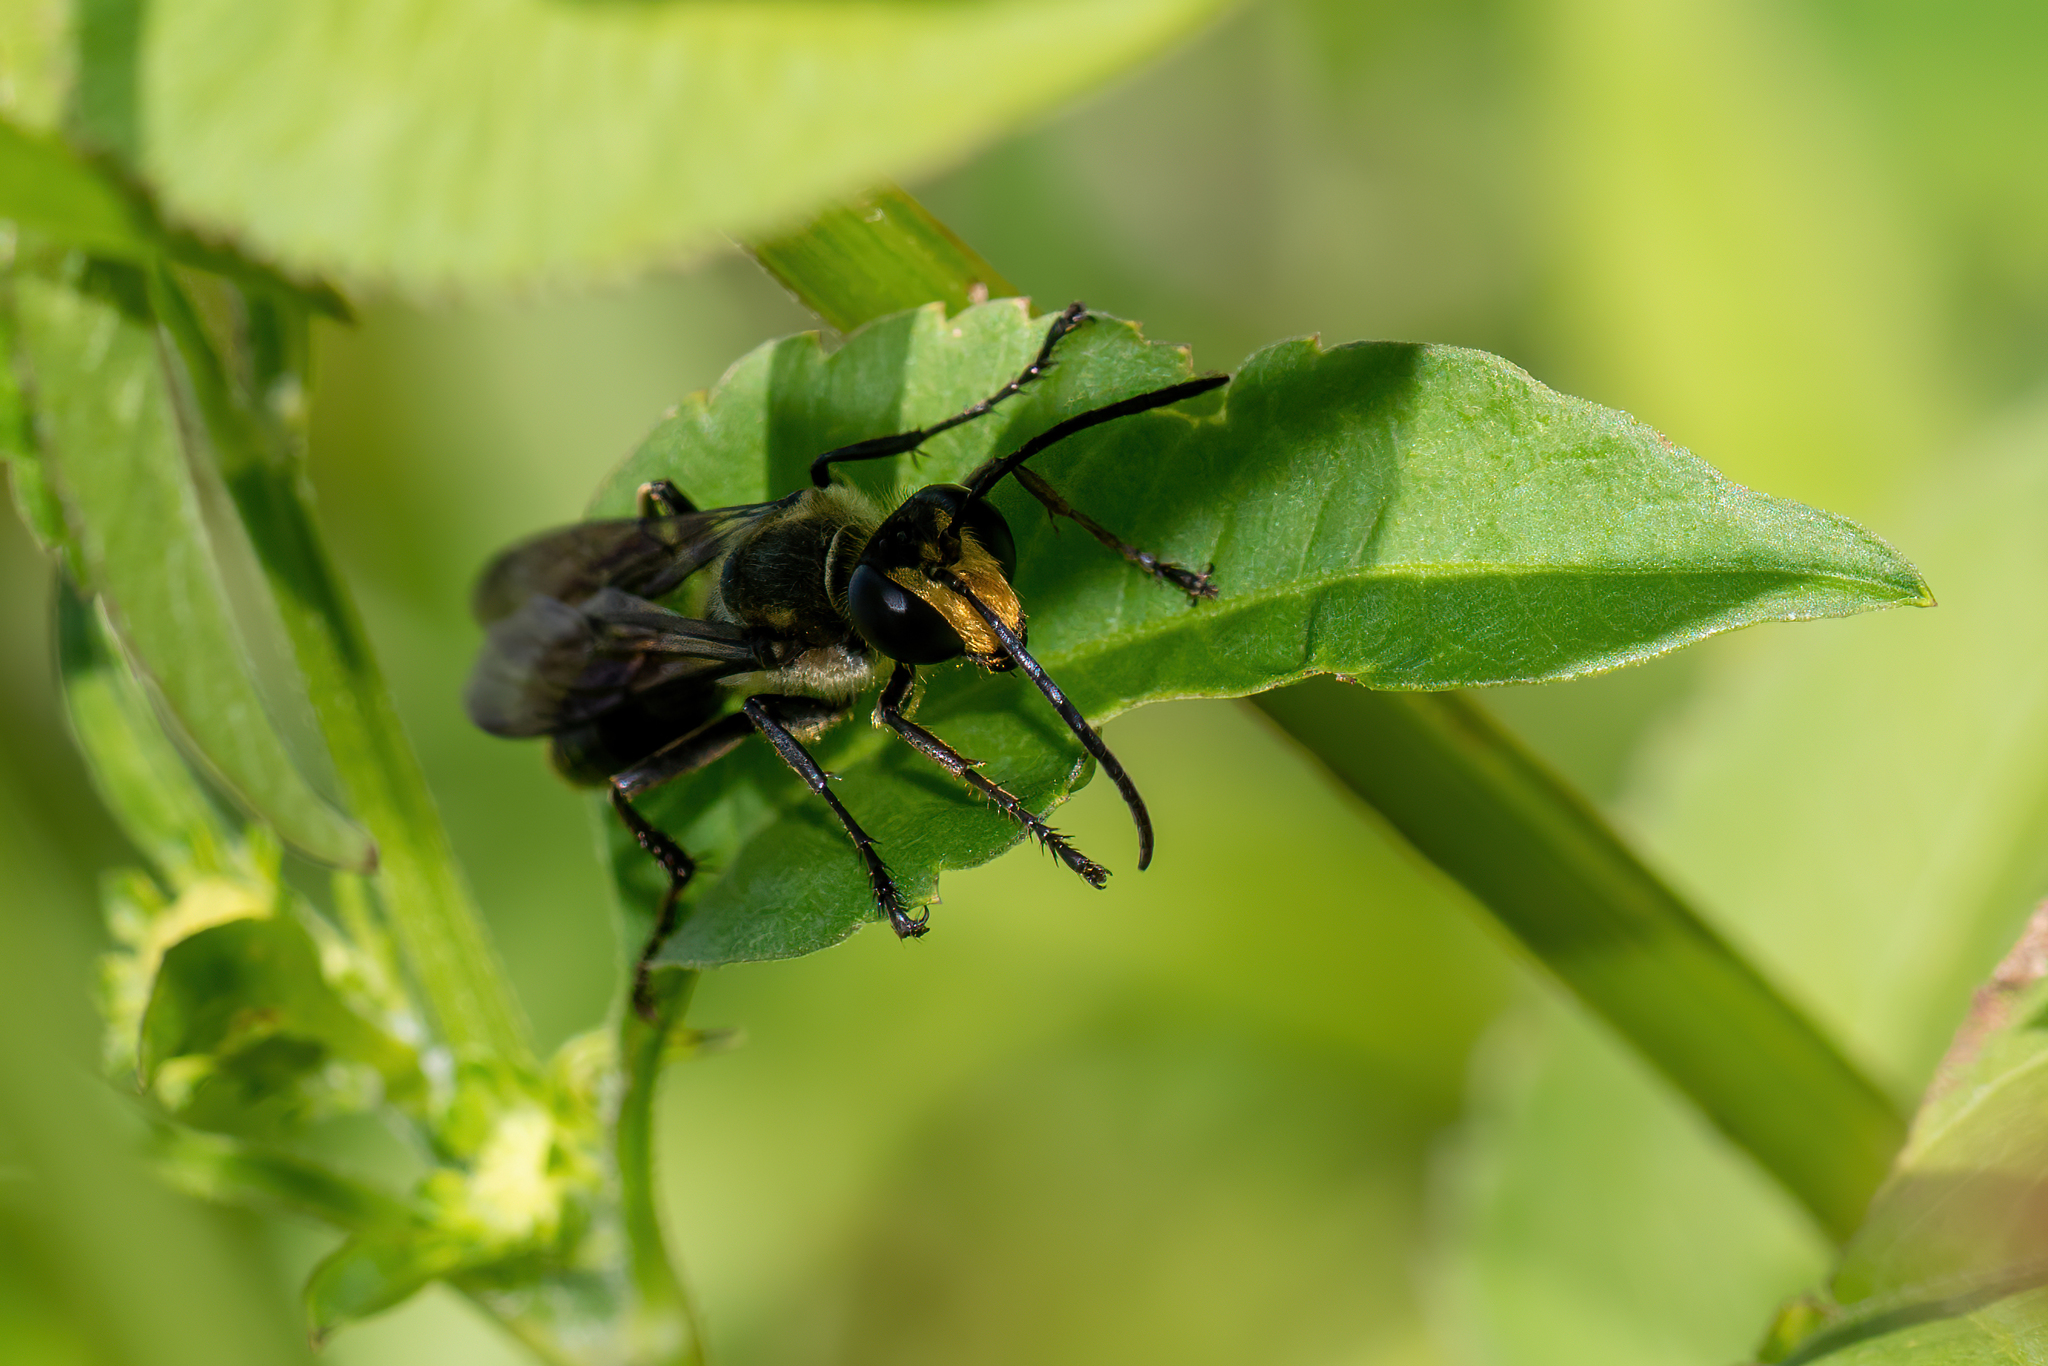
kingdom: Animalia
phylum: Arthropoda
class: Insecta
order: Hymenoptera
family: Sphecidae
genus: Sphex
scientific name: Sphex habenus
